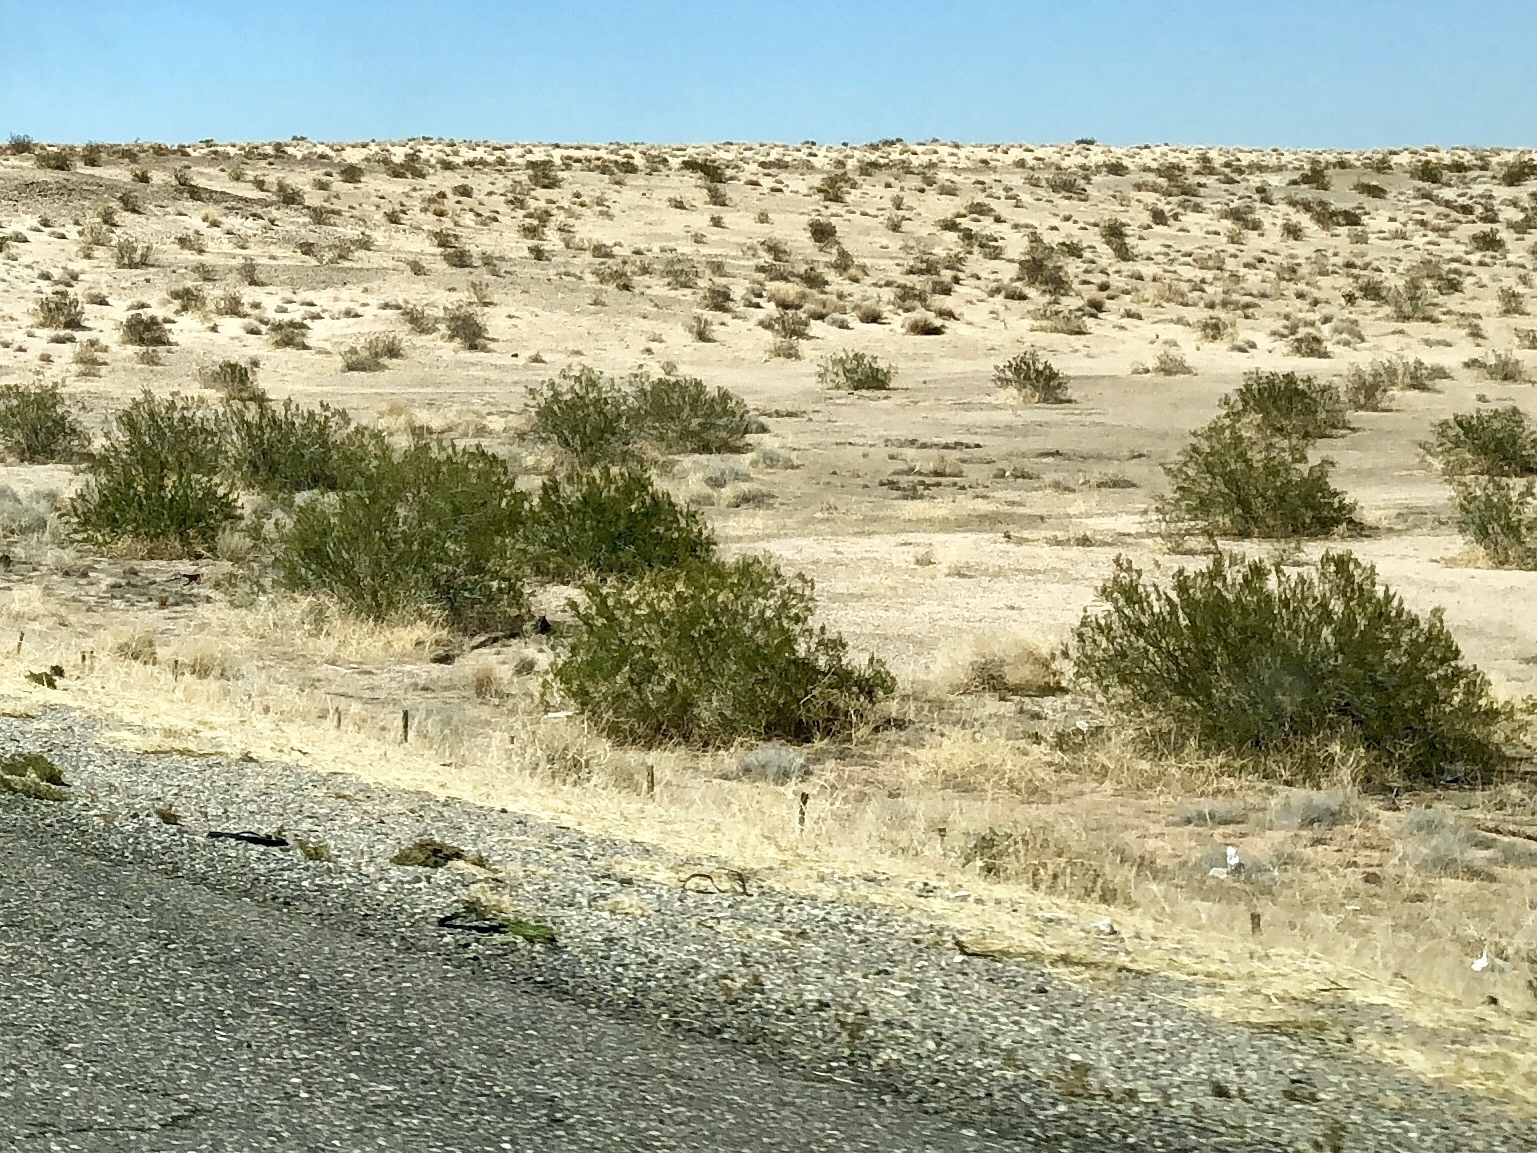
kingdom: Plantae
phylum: Tracheophyta
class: Magnoliopsida
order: Zygophyllales
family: Zygophyllaceae
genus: Larrea
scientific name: Larrea tridentata
